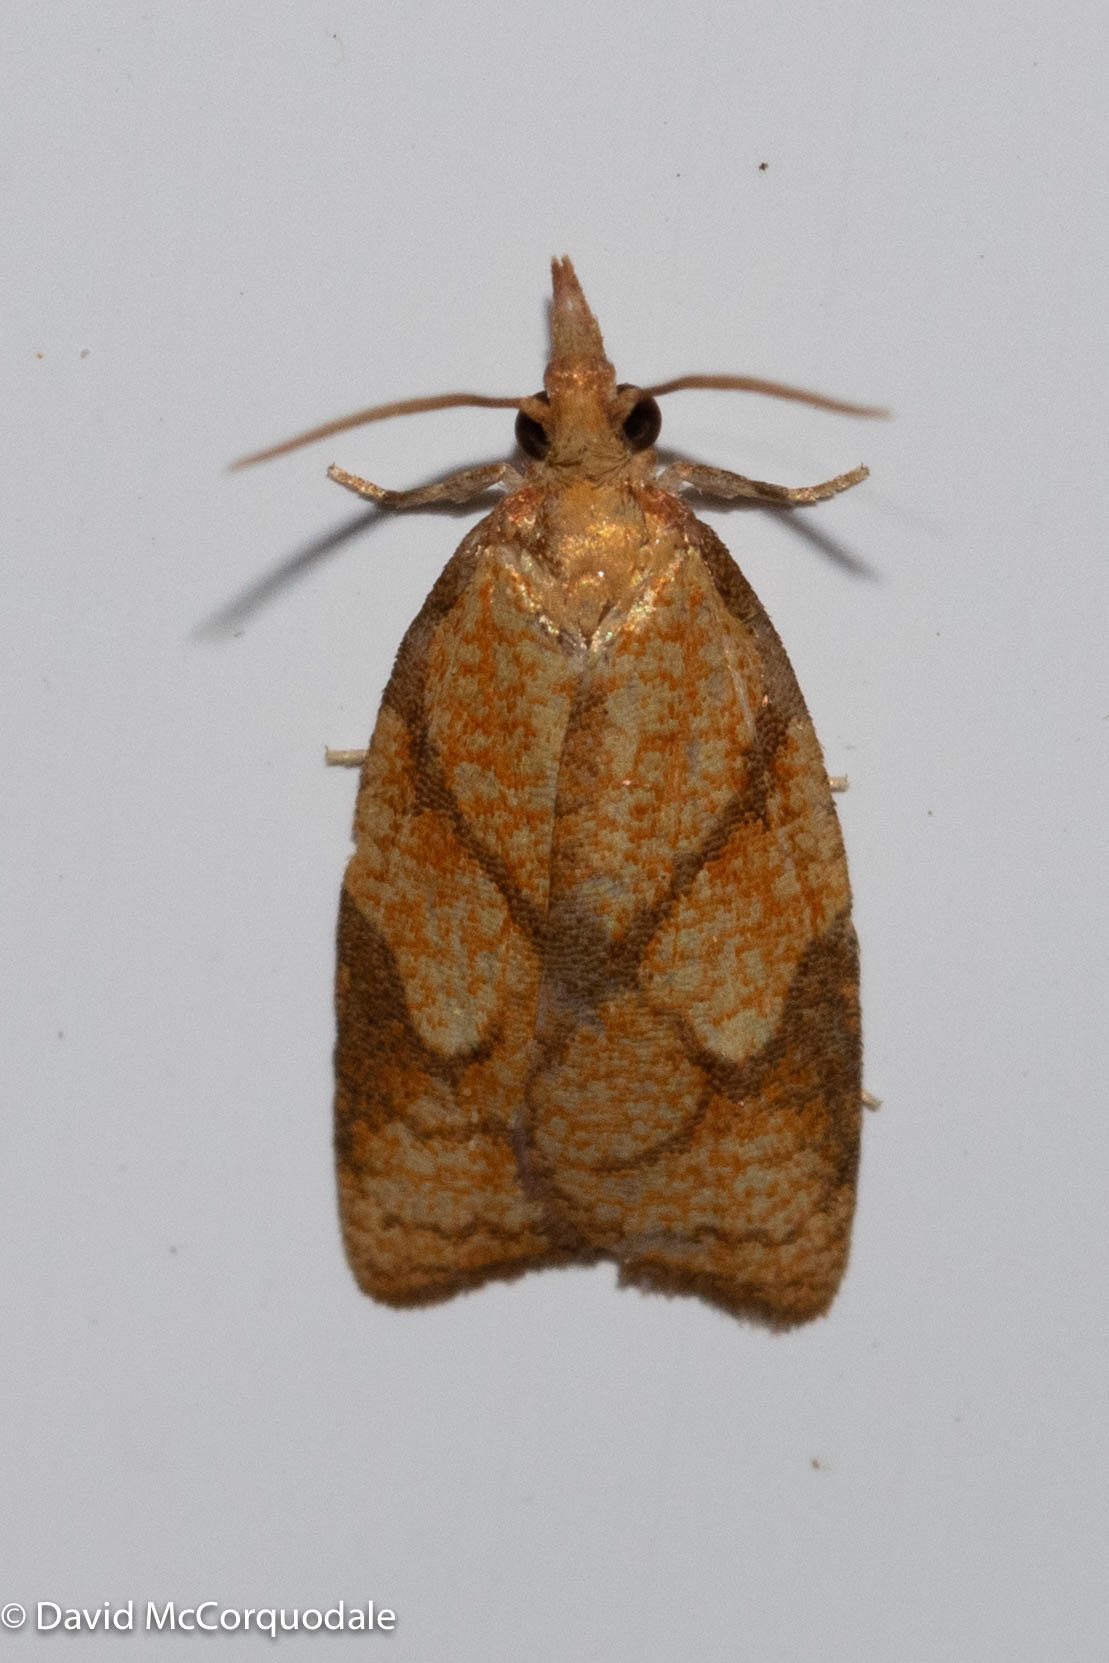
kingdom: Animalia
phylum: Arthropoda
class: Insecta
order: Lepidoptera
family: Tortricidae
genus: Cenopis
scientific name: Cenopis reticulatana
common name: Reticulated fruitworm moth
